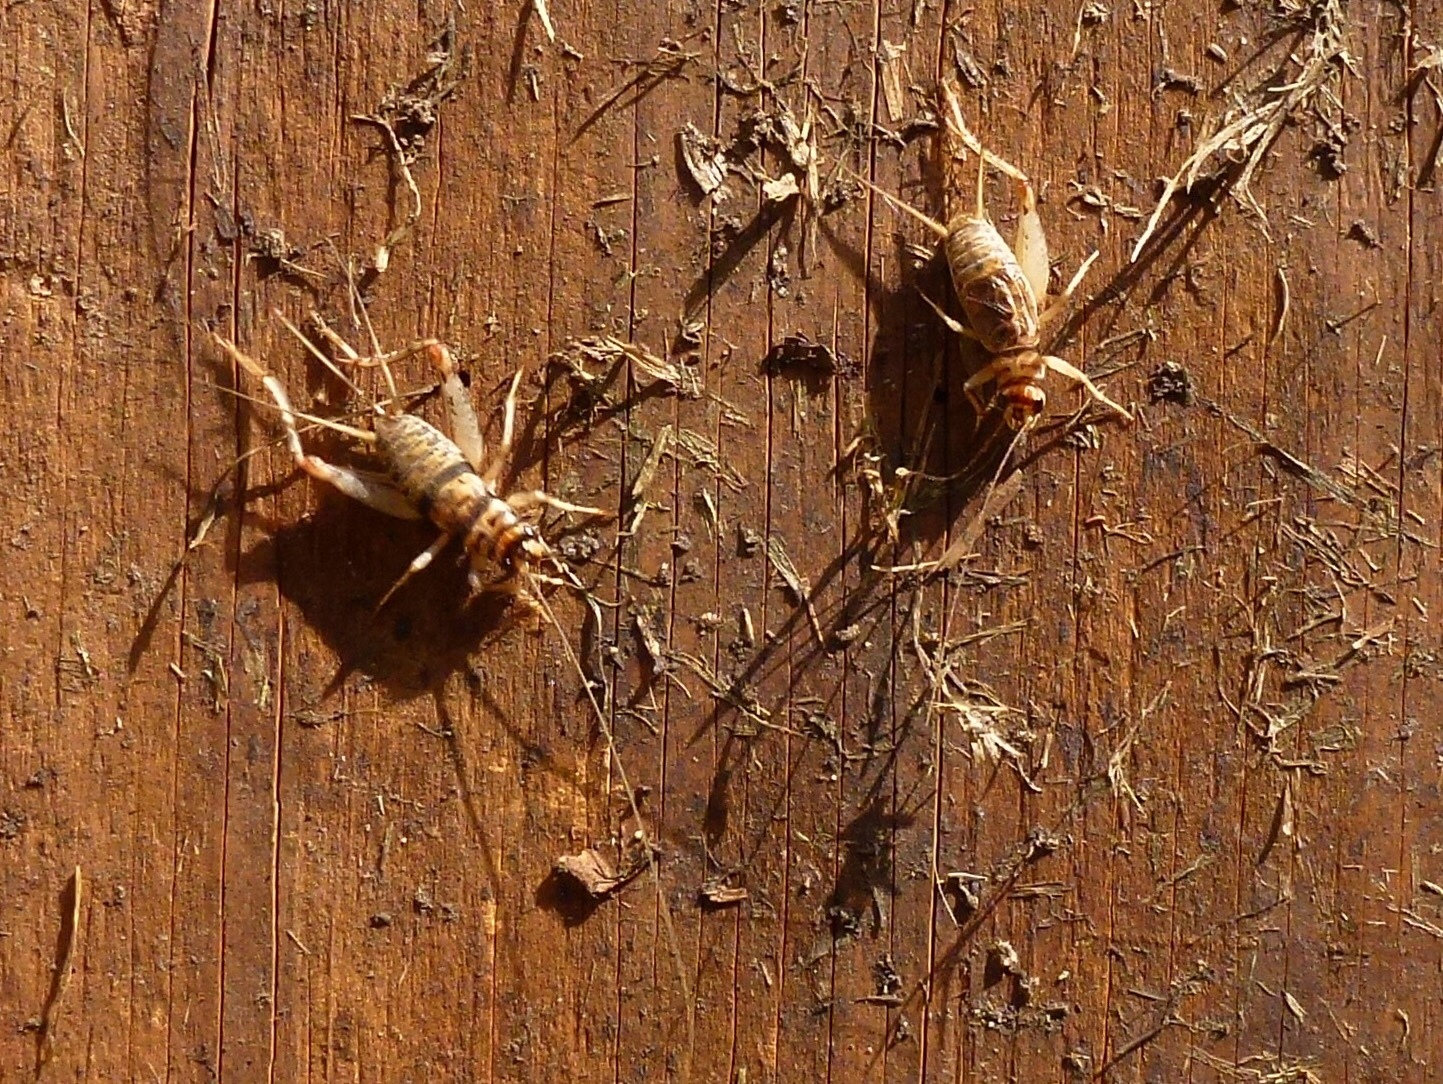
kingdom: Animalia
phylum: Arthropoda
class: Insecta
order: Orthoptera
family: Gryllidae
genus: Gryllodes
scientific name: Gryllodes sigillatus
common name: Tropical house cricket
